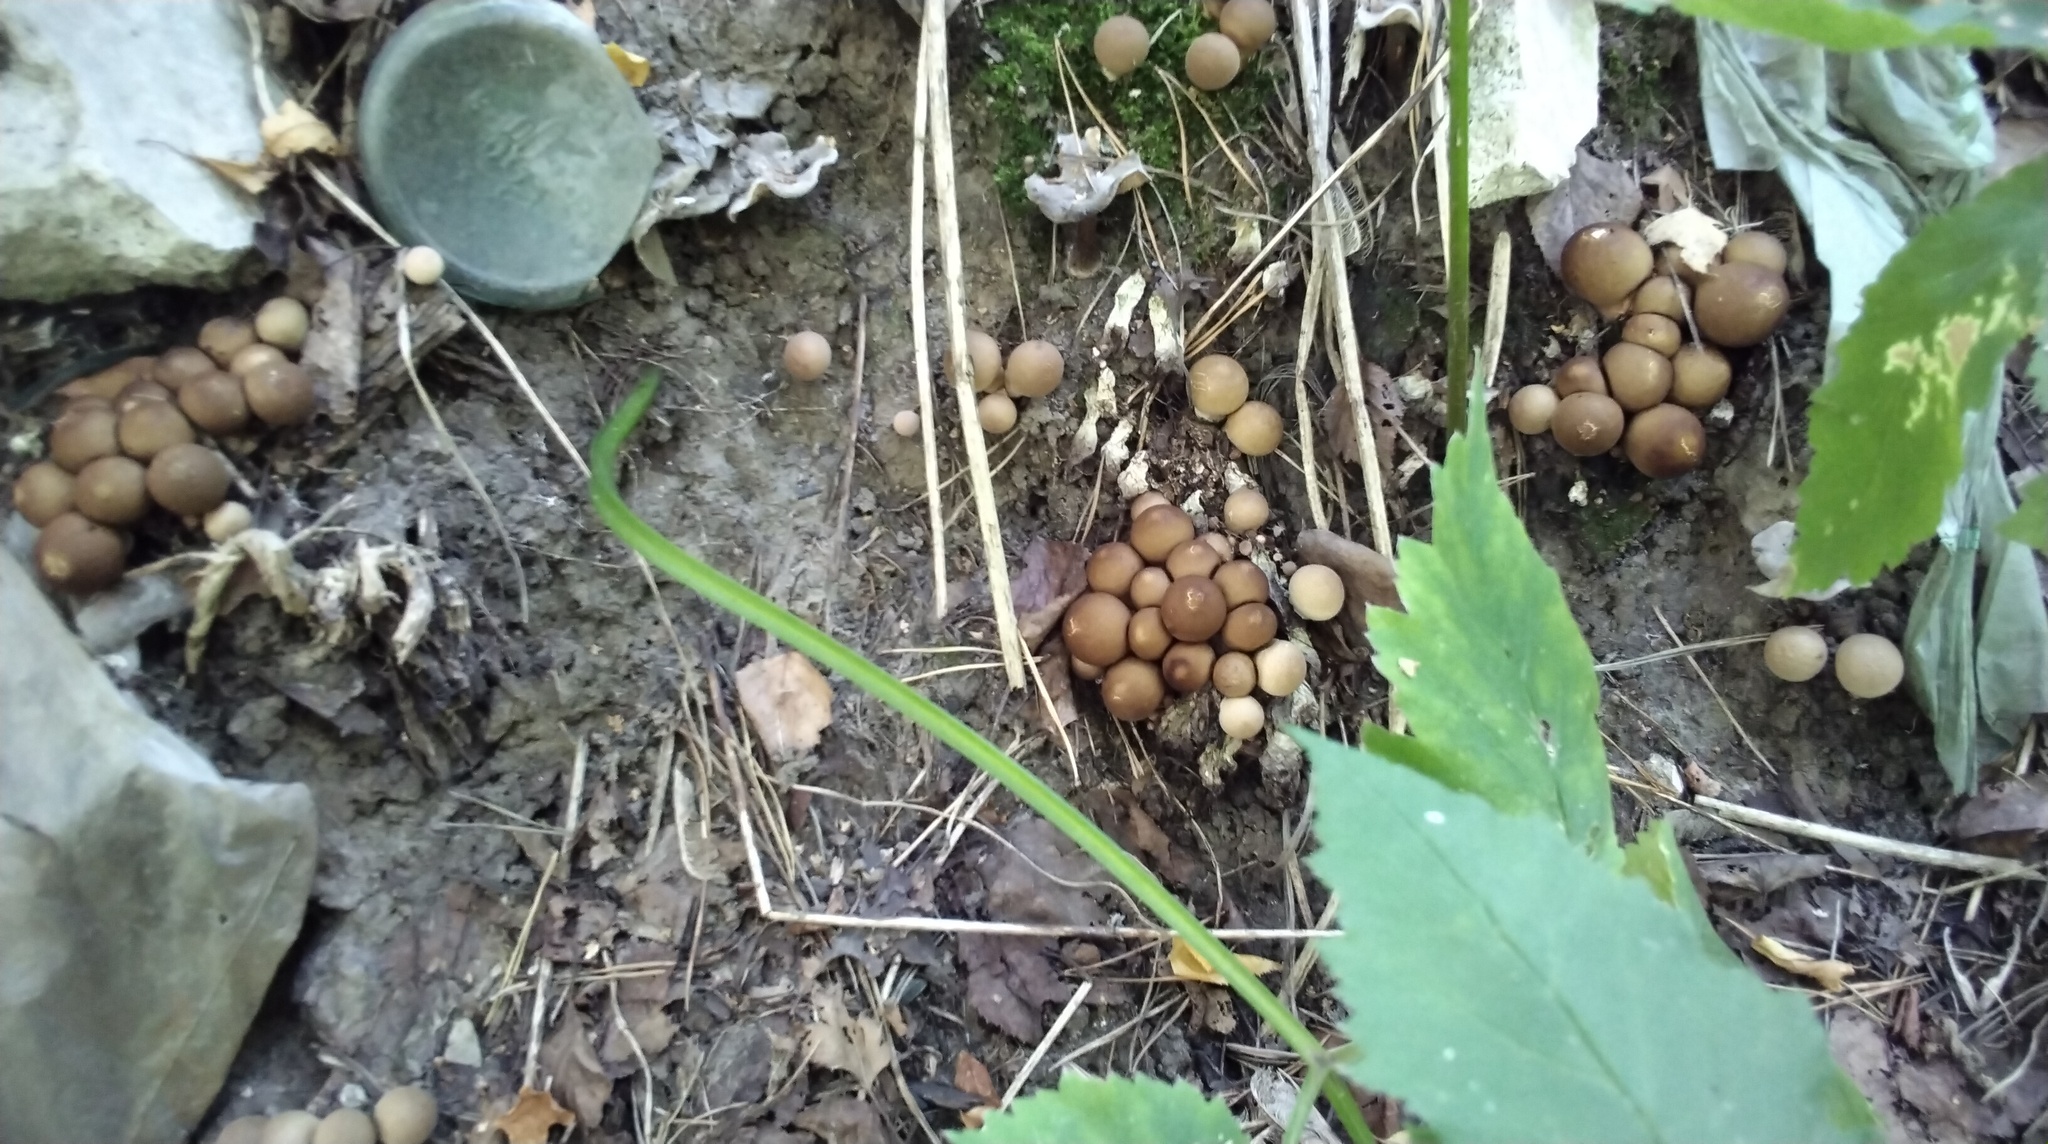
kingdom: Fungi
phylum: Basidiomycota
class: Agaricomycetes
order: Agaricales
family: Lycoperdaceae
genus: Apioperdon
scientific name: Apioperdon pyriforme
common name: Pear-shaped puffball
